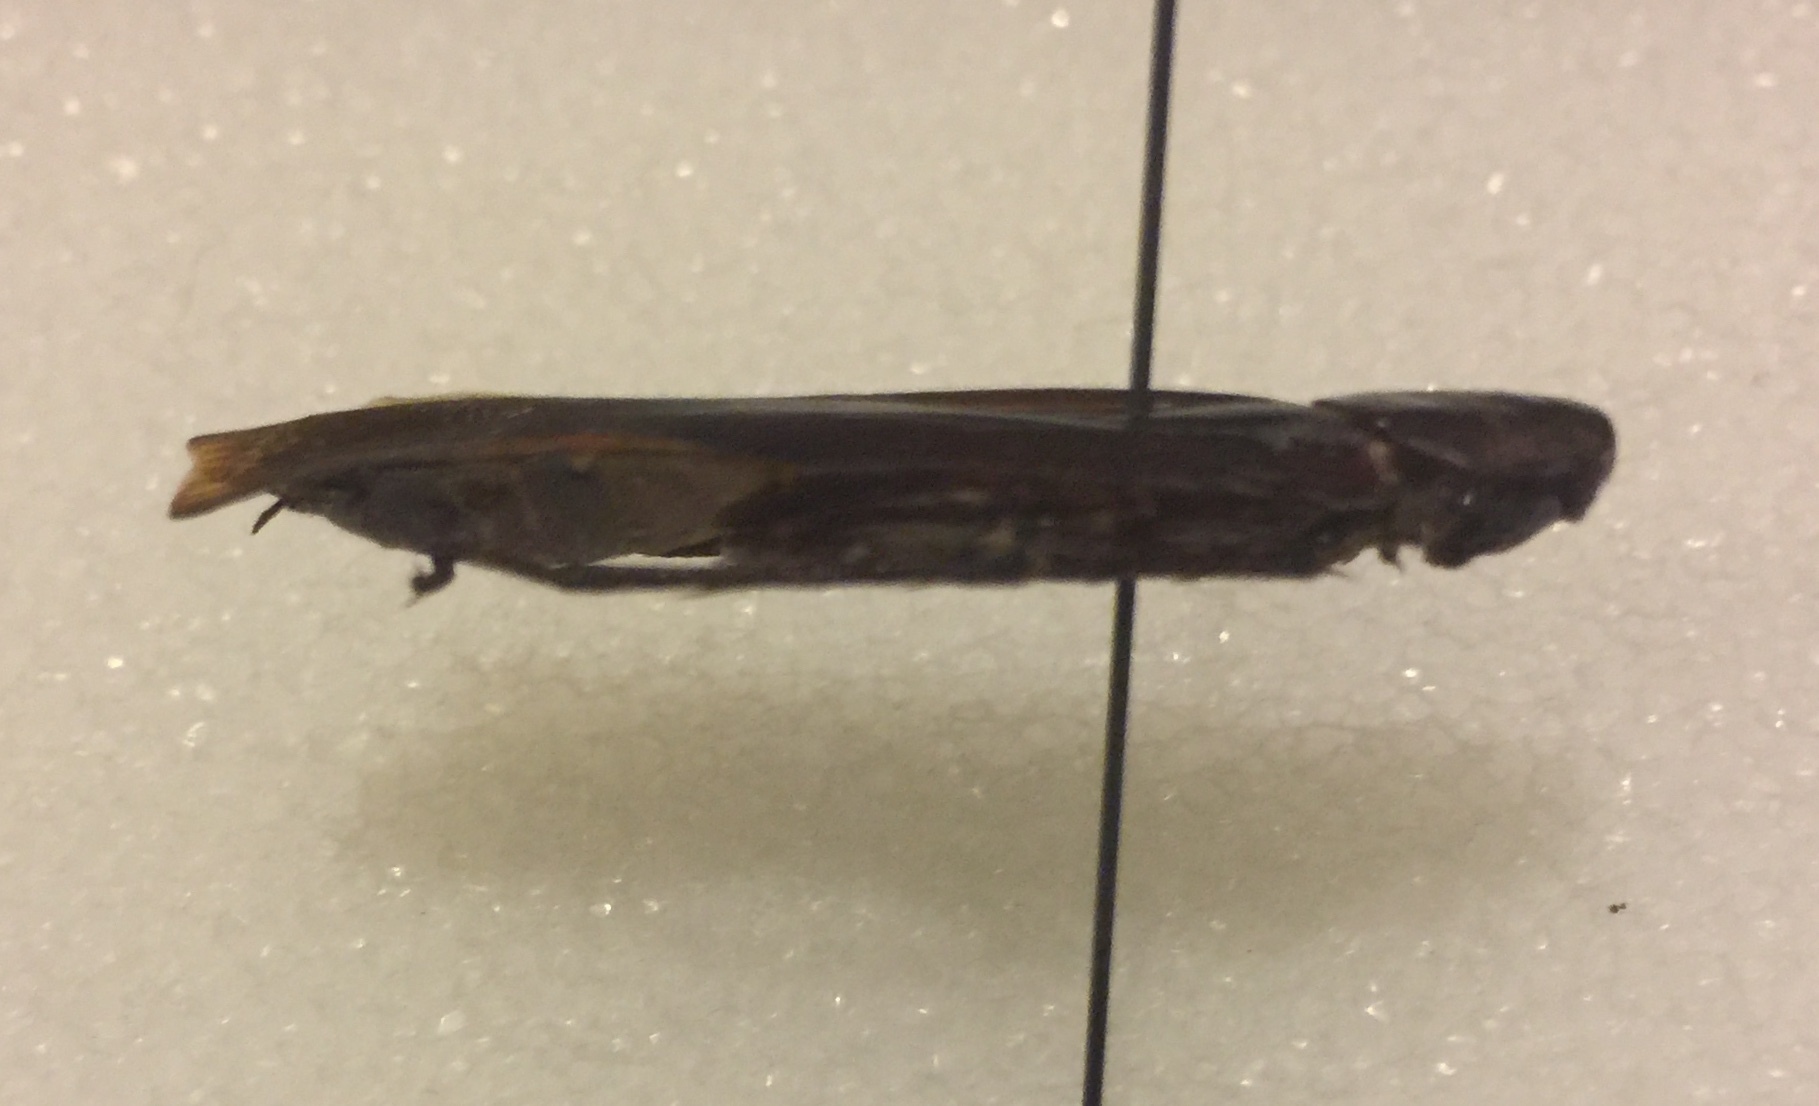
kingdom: Animalia
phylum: Arthropoda
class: Insecta
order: Blattodea
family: Blattidae
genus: Periplaneta
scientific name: Periplaneta fuliginosa
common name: Smokeybrown cockroad
